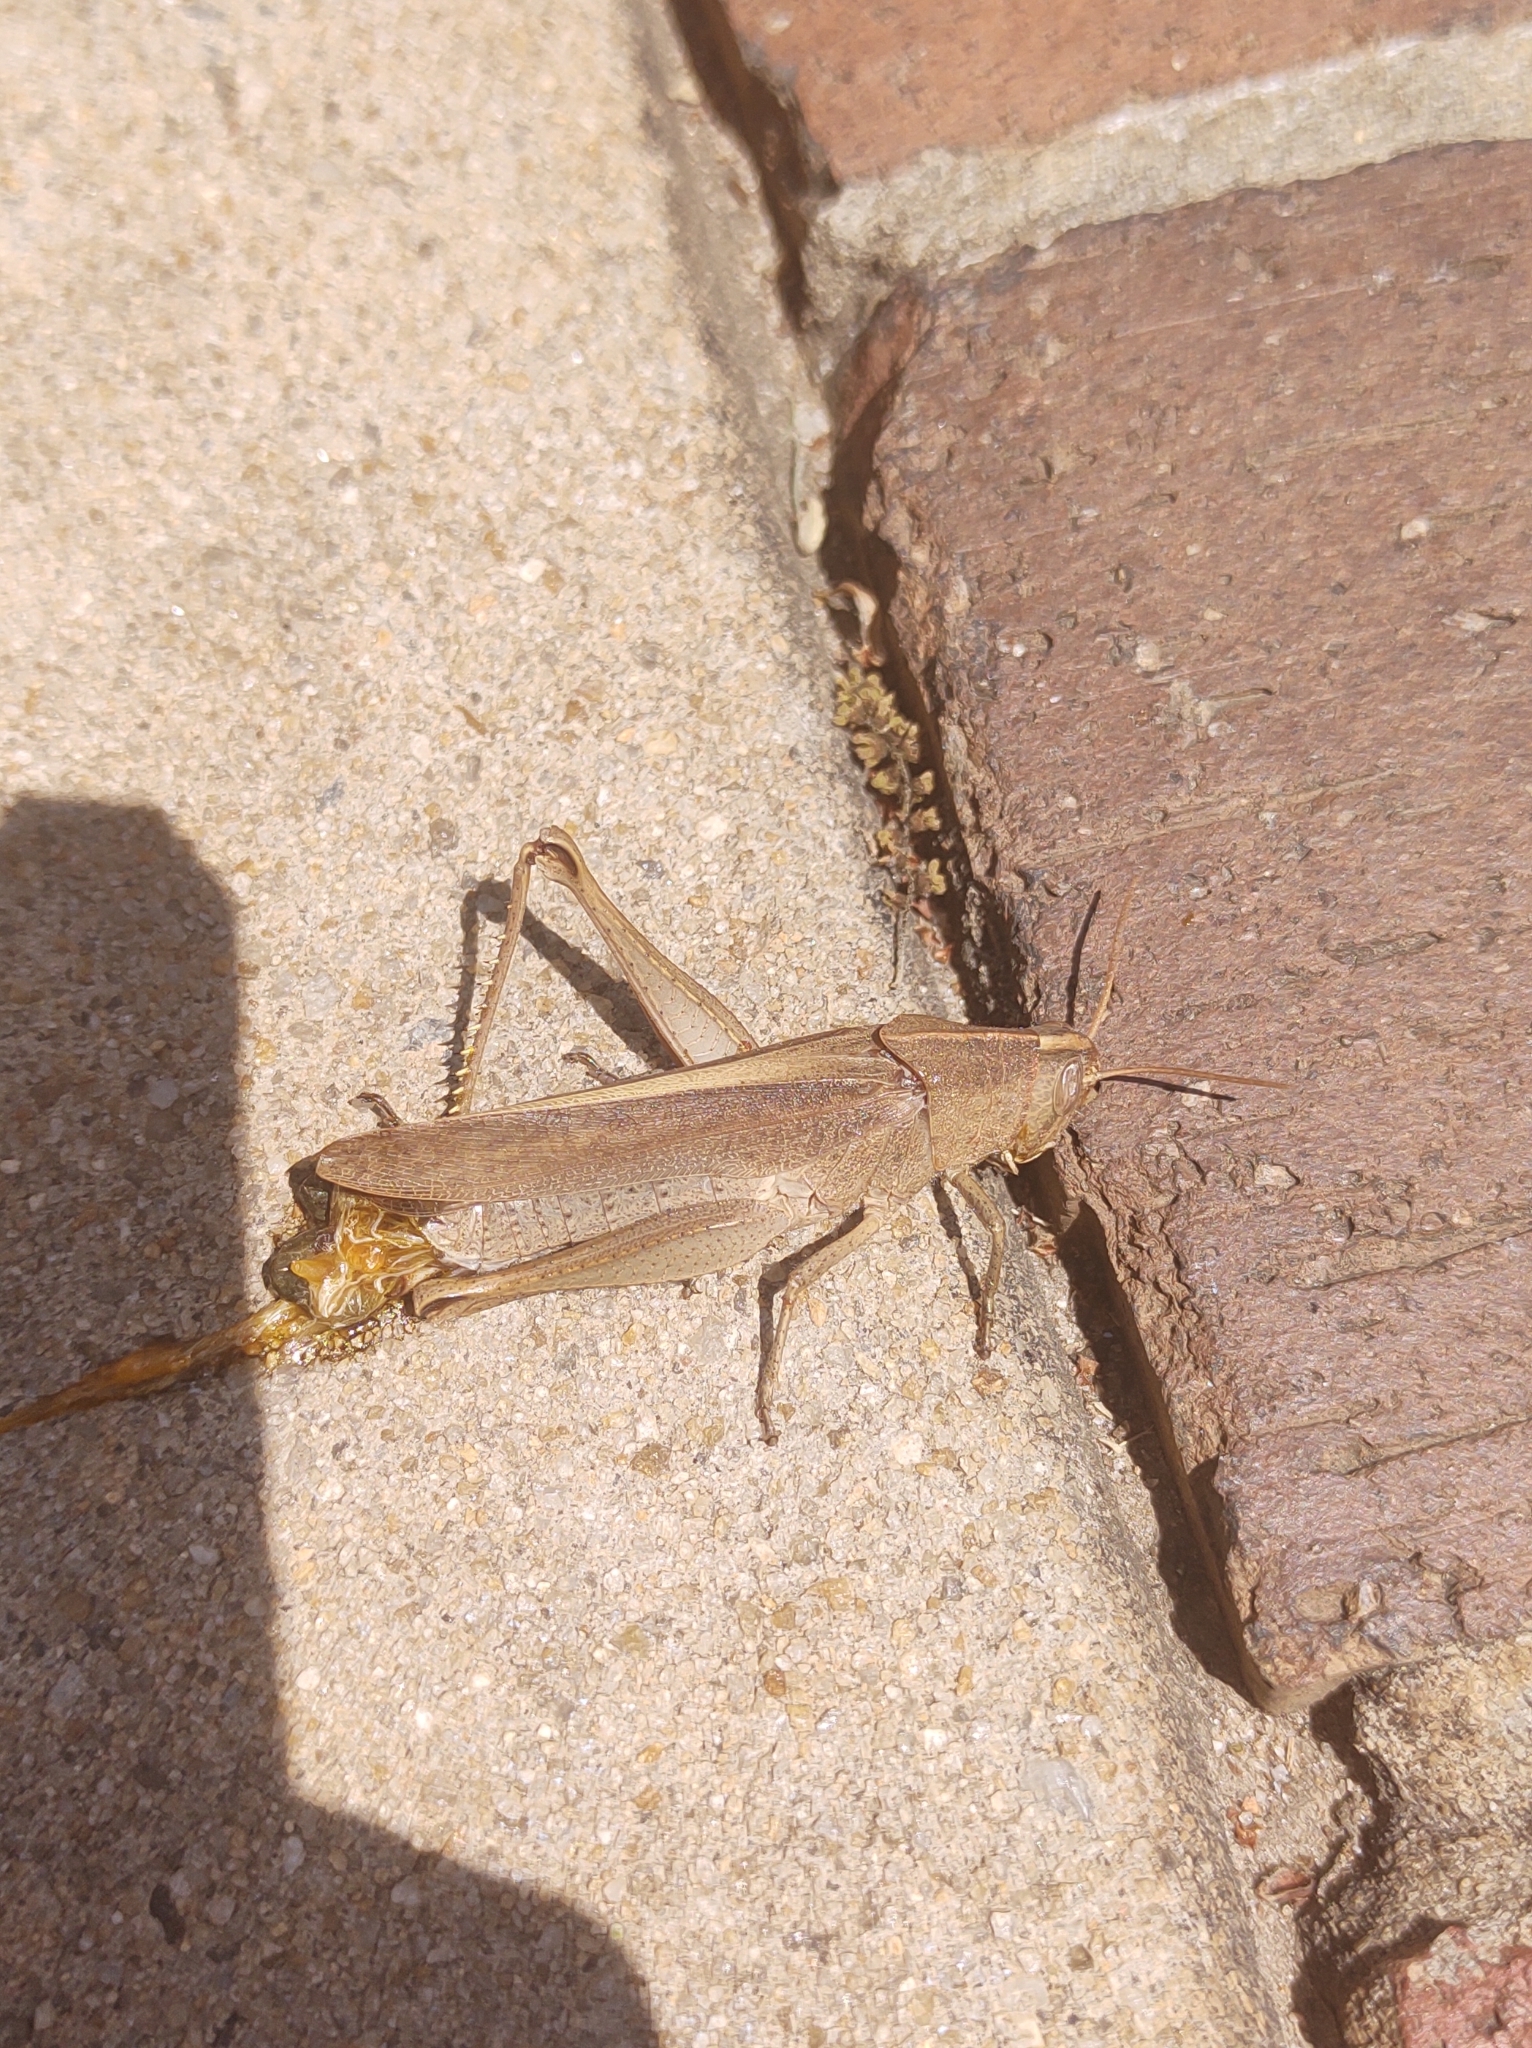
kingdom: Animalia
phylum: Arthropoda
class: Insecta
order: Orthoptera
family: Acrididae
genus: Schistocerca
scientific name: Schistocerca damnifica
